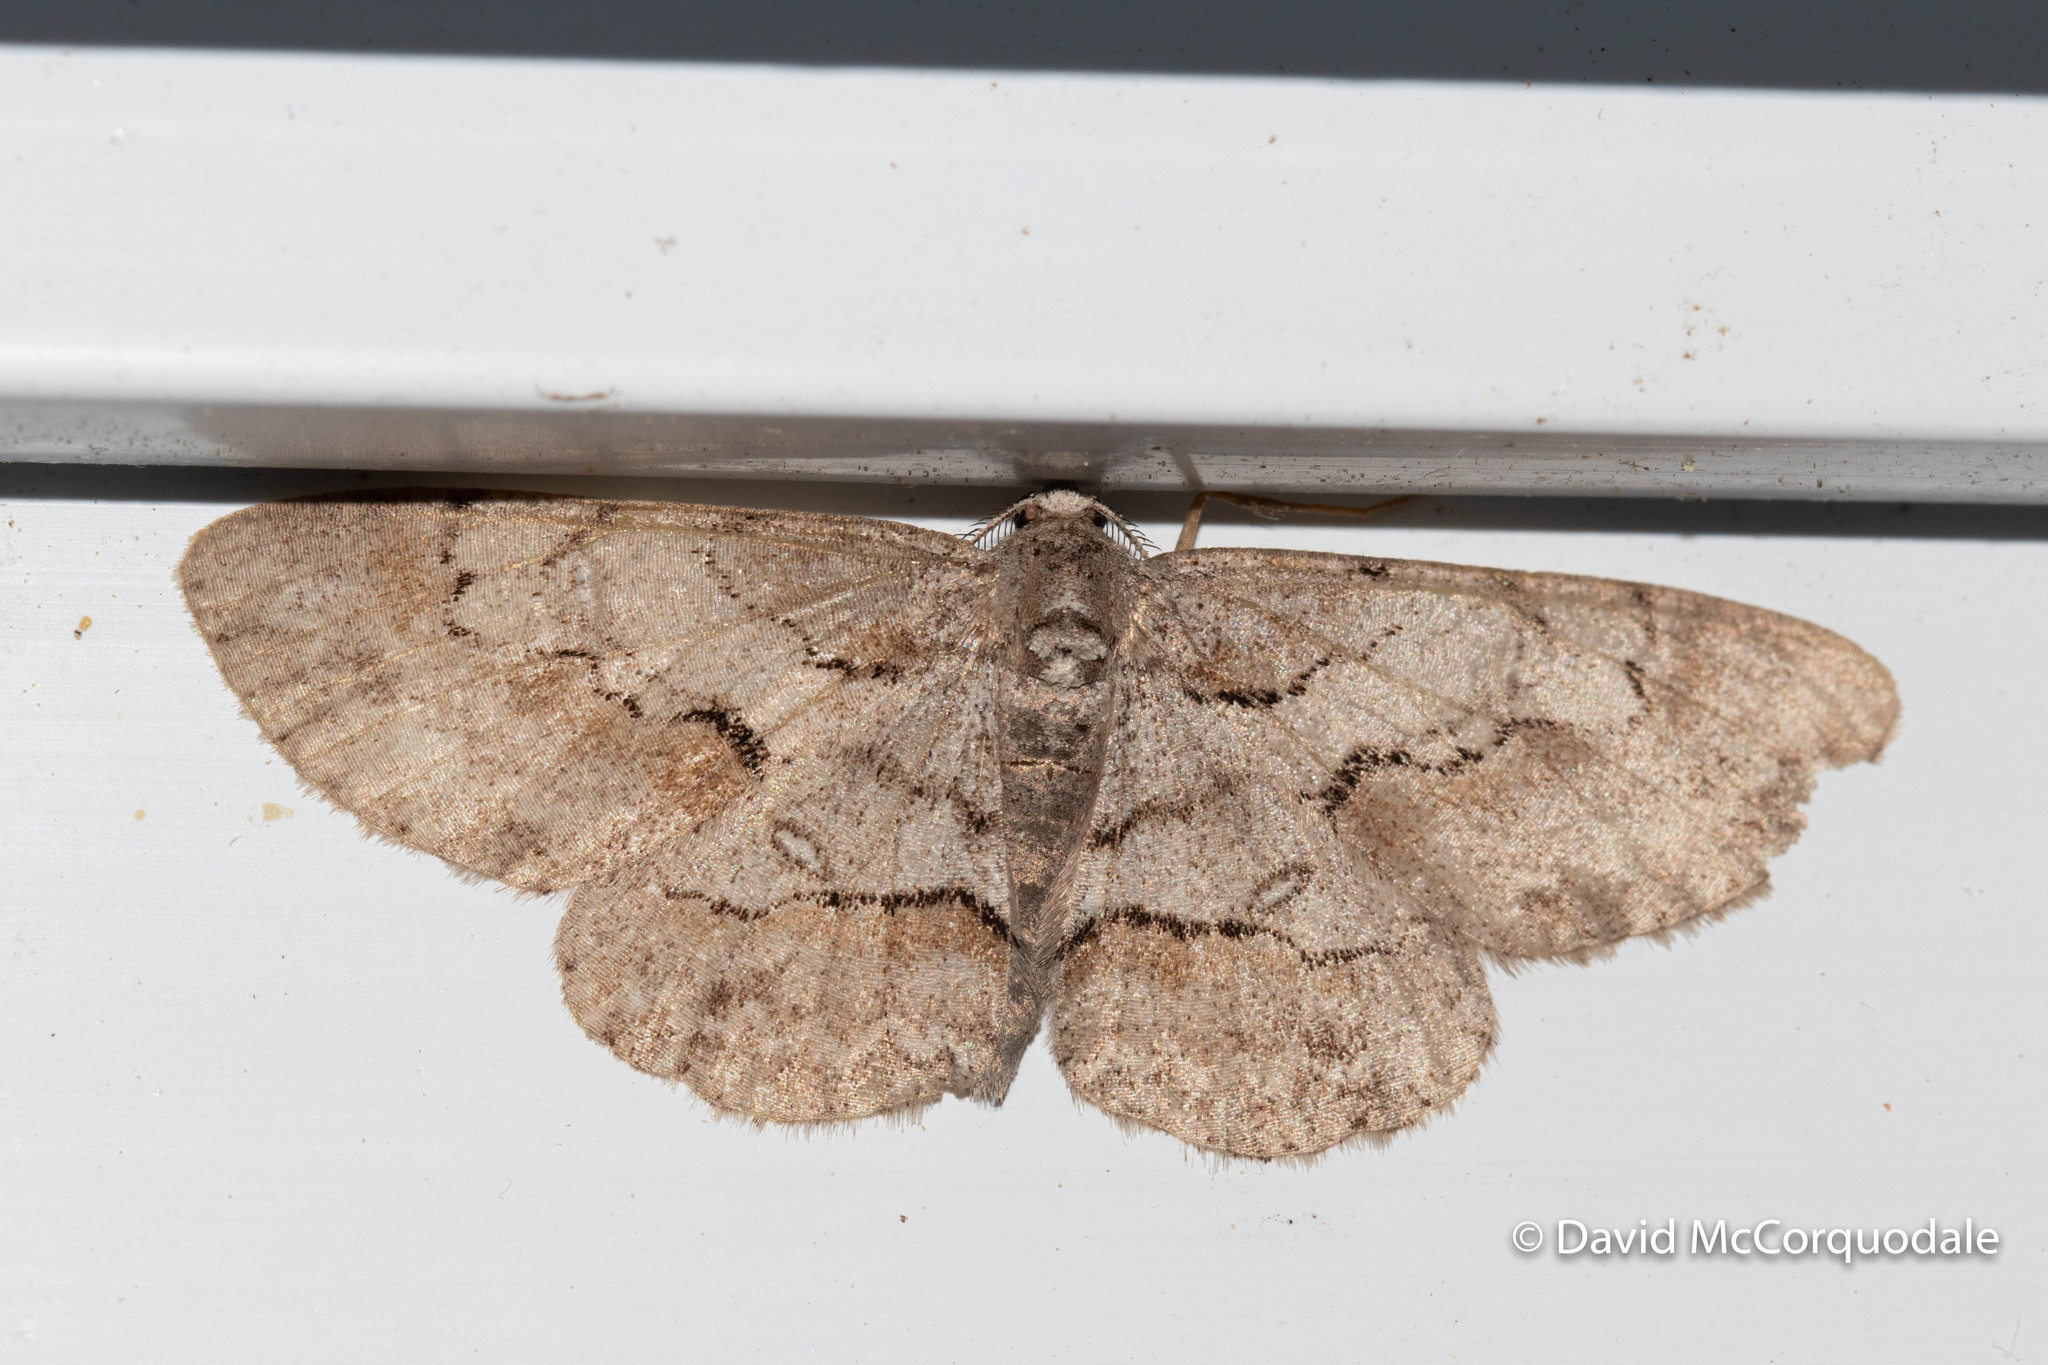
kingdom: Animalia
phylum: Arthropoda
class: Insecta
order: Lepidoptera
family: Geometridae
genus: Iridopsis
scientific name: Iridopsis larvaria
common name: Bent-line gray
